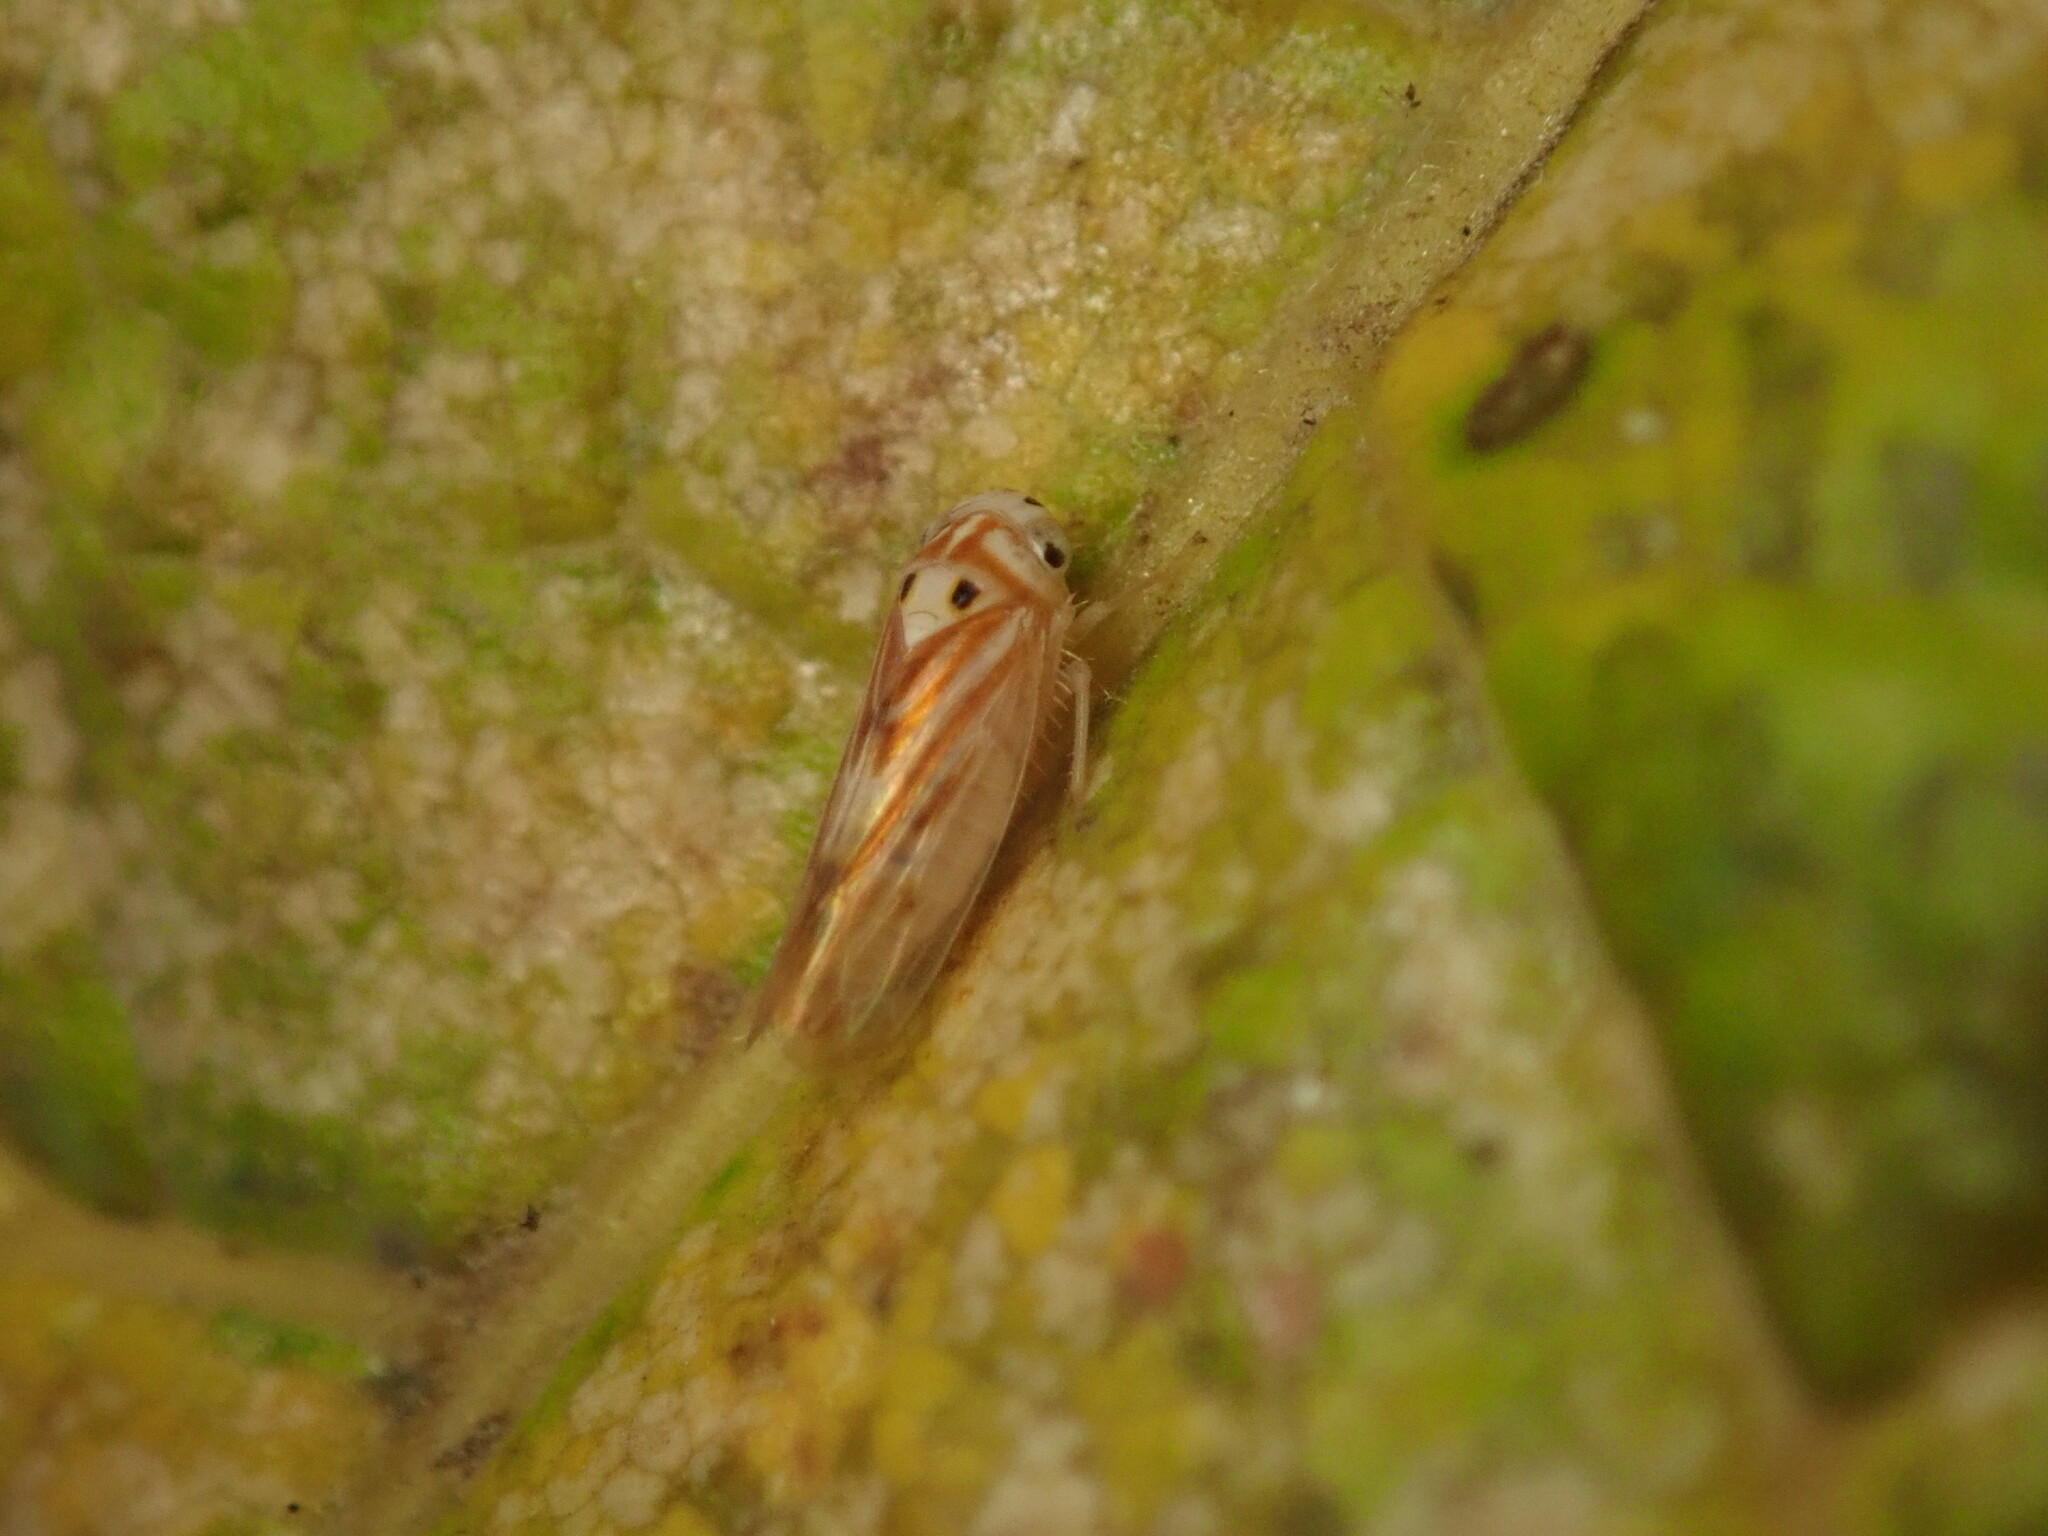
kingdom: Animalia
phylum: Arthropoda
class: Insecta
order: Hemiptera
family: Cicadellidae
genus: Caladonus
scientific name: Caladonus coquilletti
